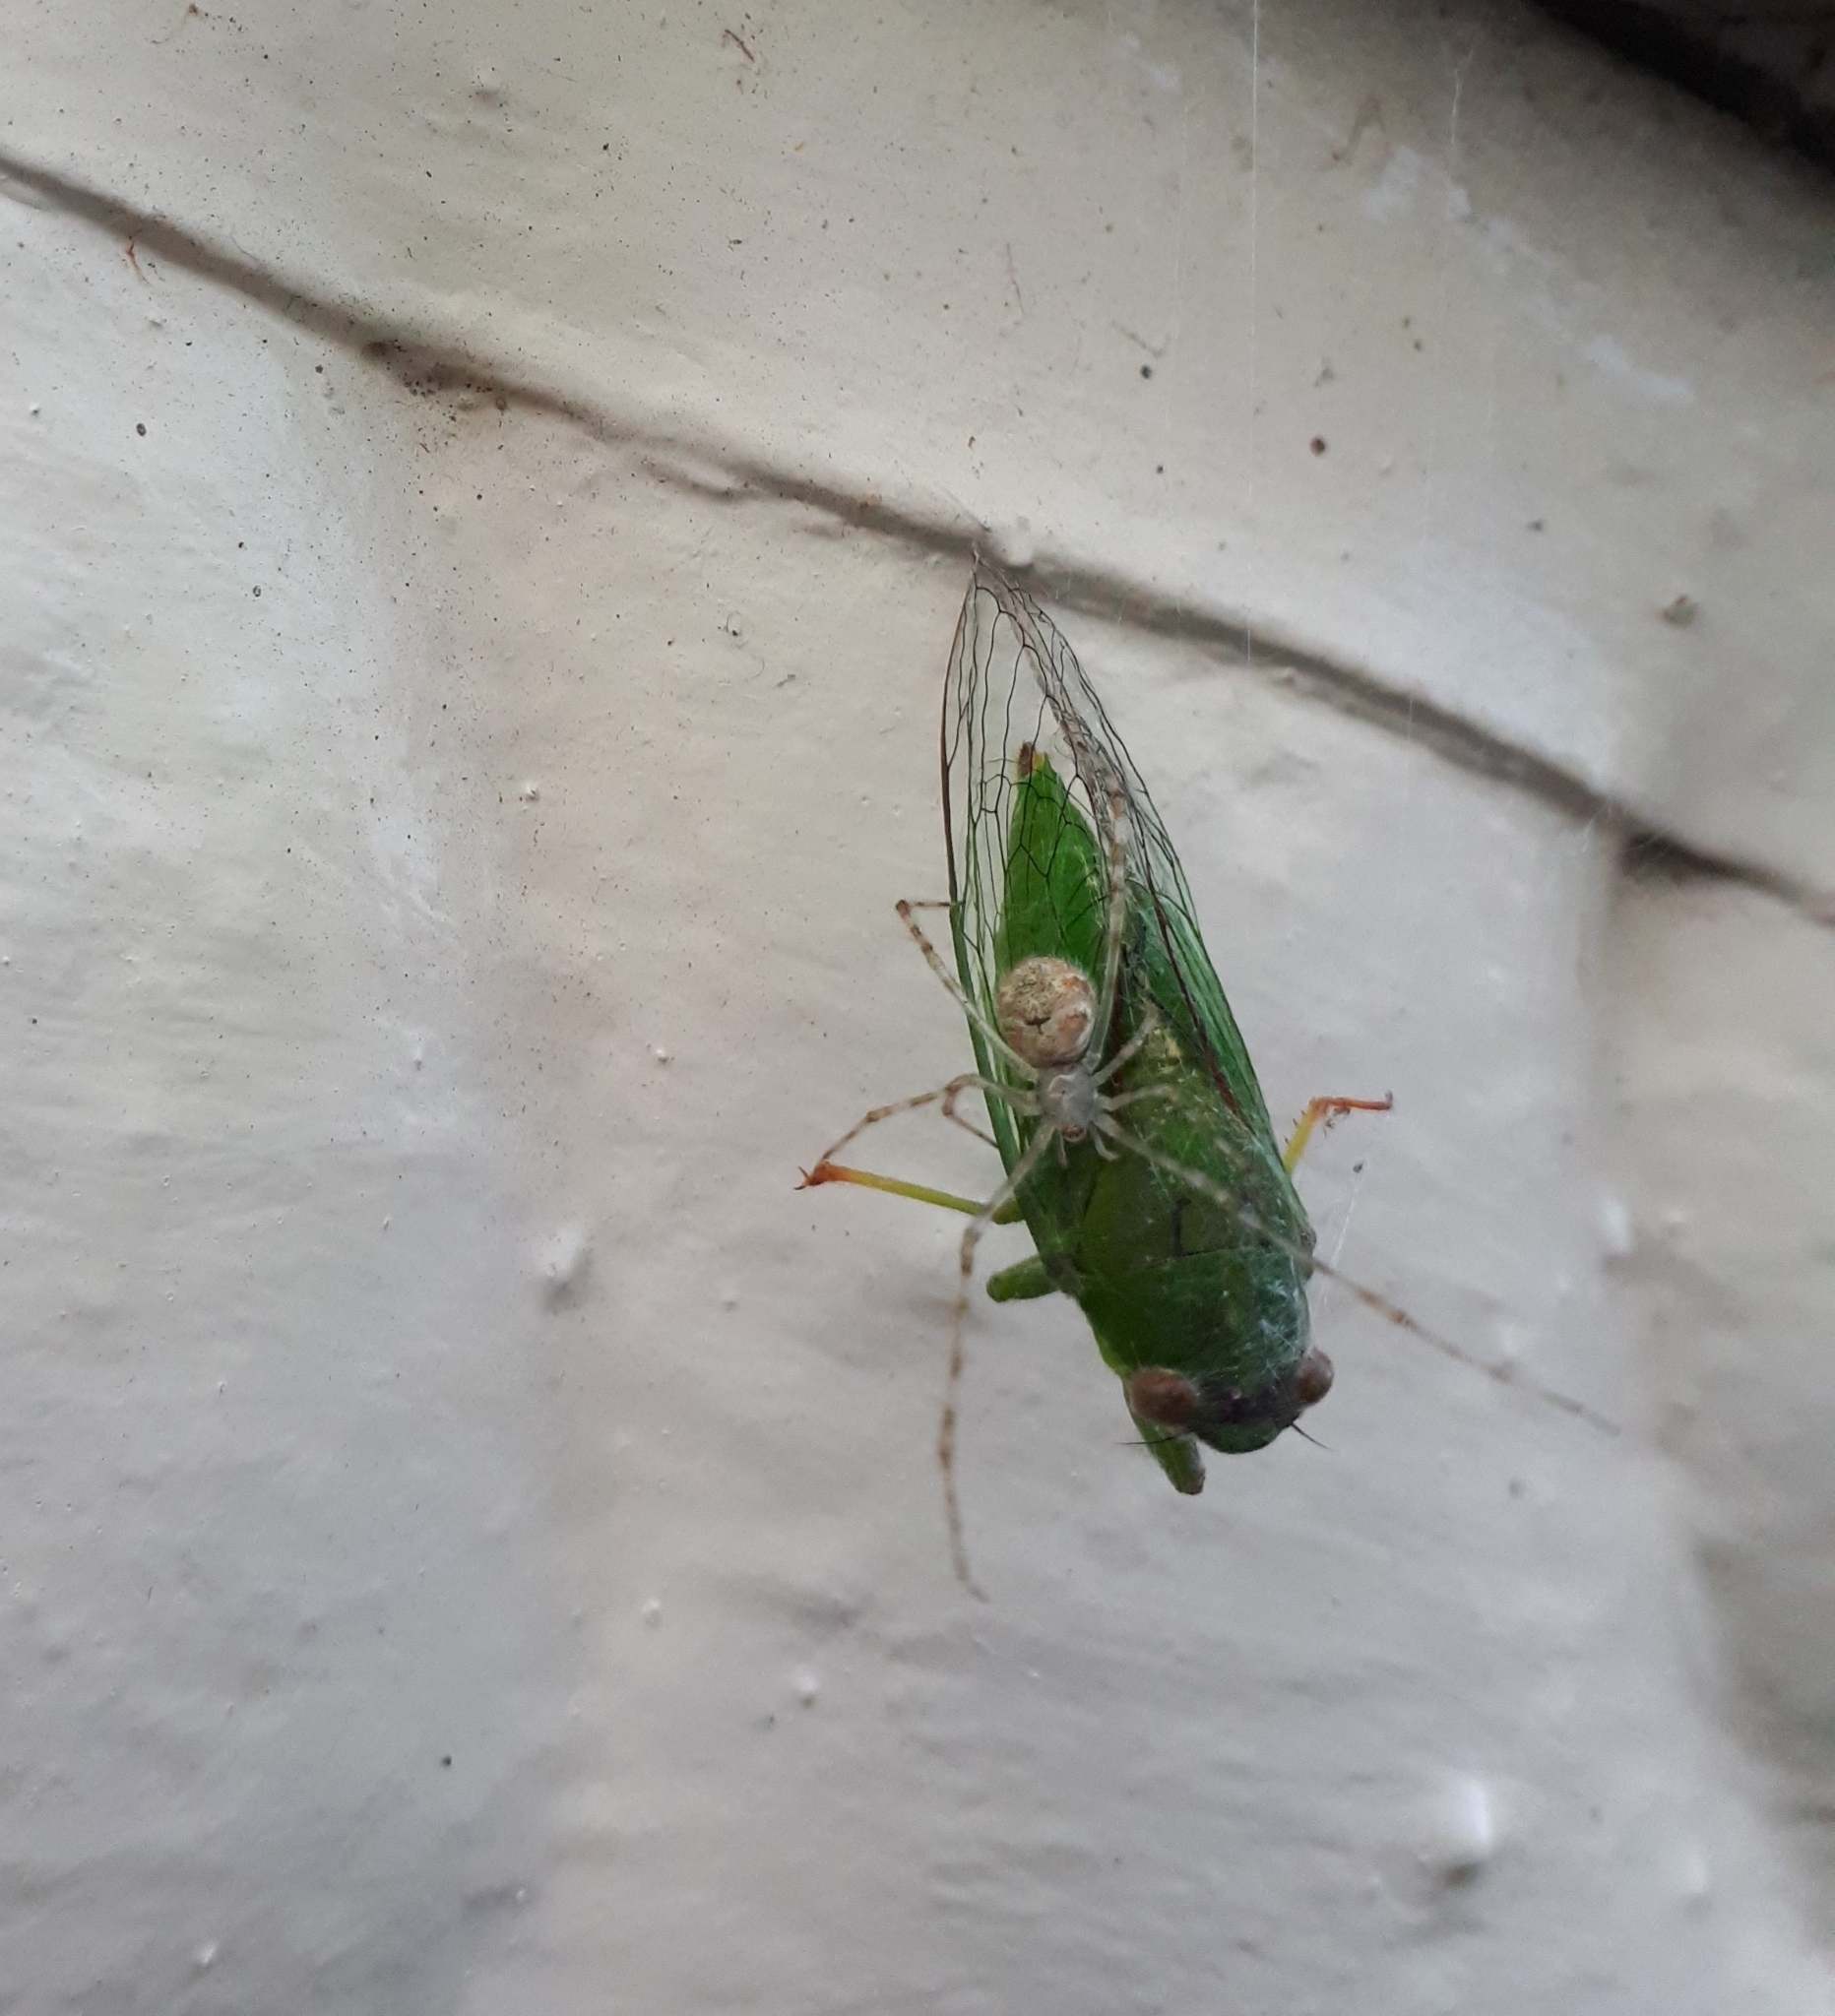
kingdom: Animalia
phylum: Arthropoda
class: Arachnida
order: Araneae
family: Theridiidae
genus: Cryptachaea
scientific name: Cryptachaea gigantipes
